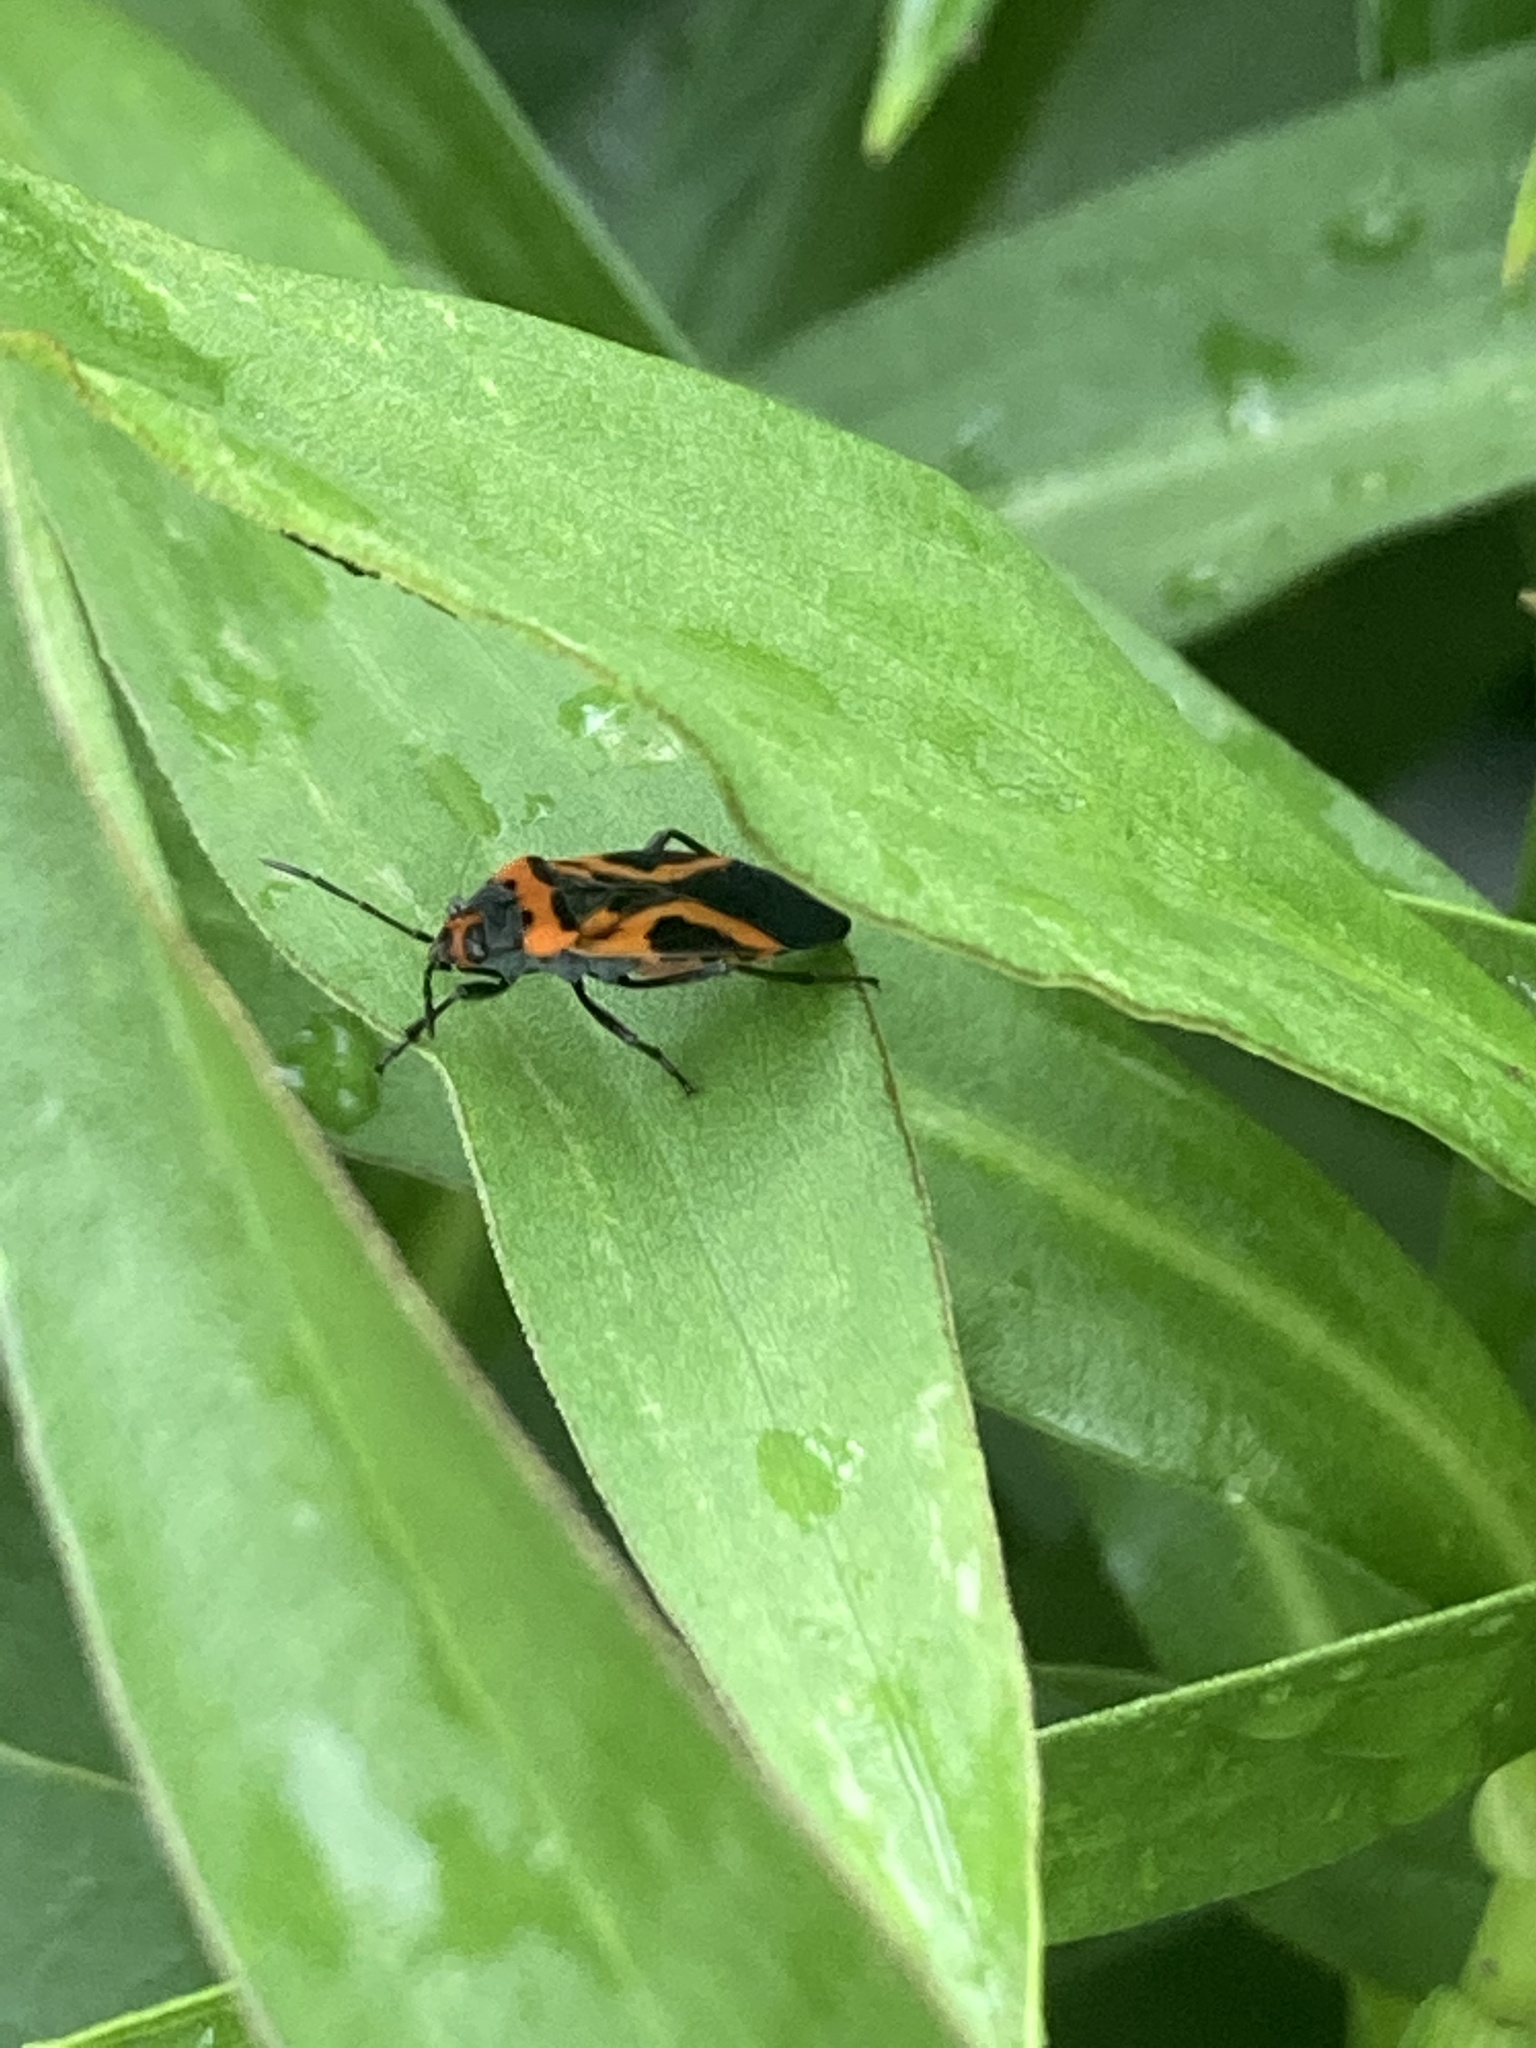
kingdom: Animalia
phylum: Arthropoda
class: Insecta
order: Hemiptera
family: Lygaeidae
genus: Lygaeus
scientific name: Lygaeus turcicus
